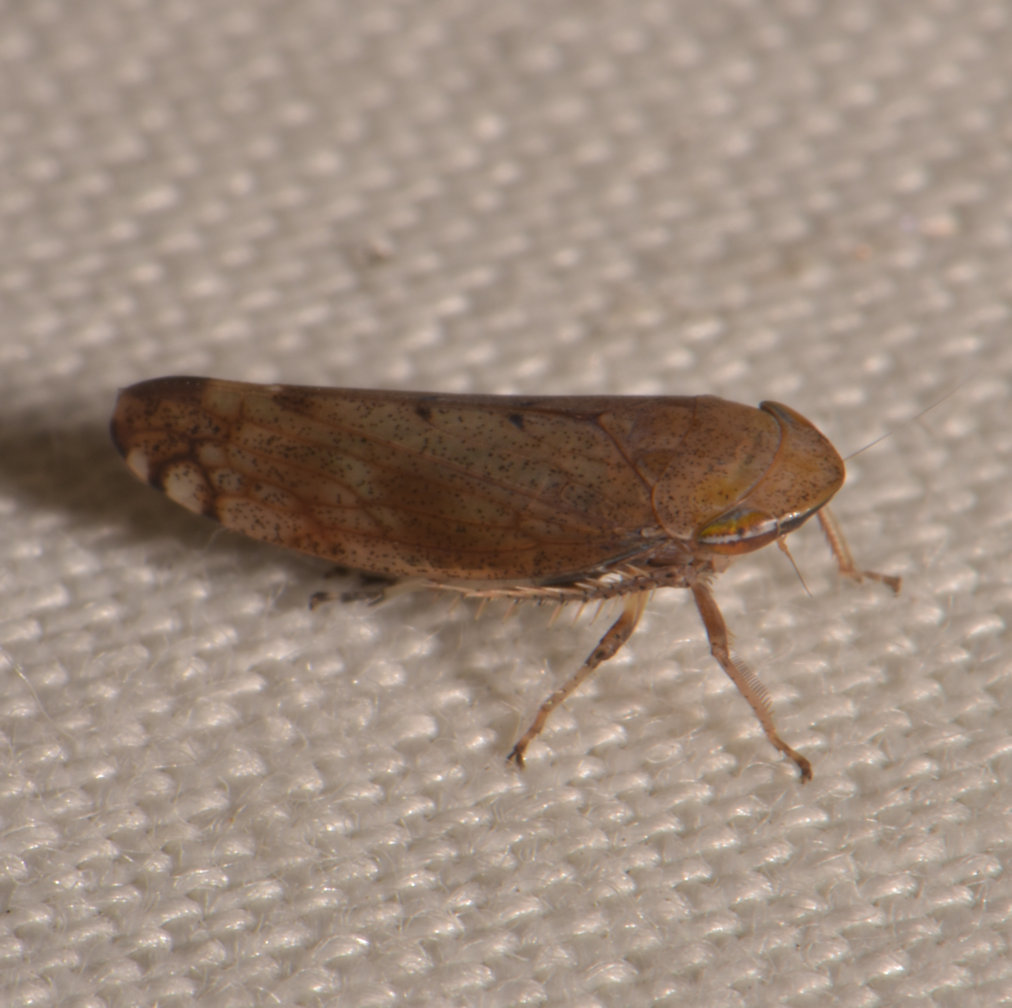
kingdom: Animalia
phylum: Arthropoda
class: Insecta
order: Hemiptera
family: Cicadellidae
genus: Fieberiella
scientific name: Fieberiella florii
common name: Flor’s leafhopper
